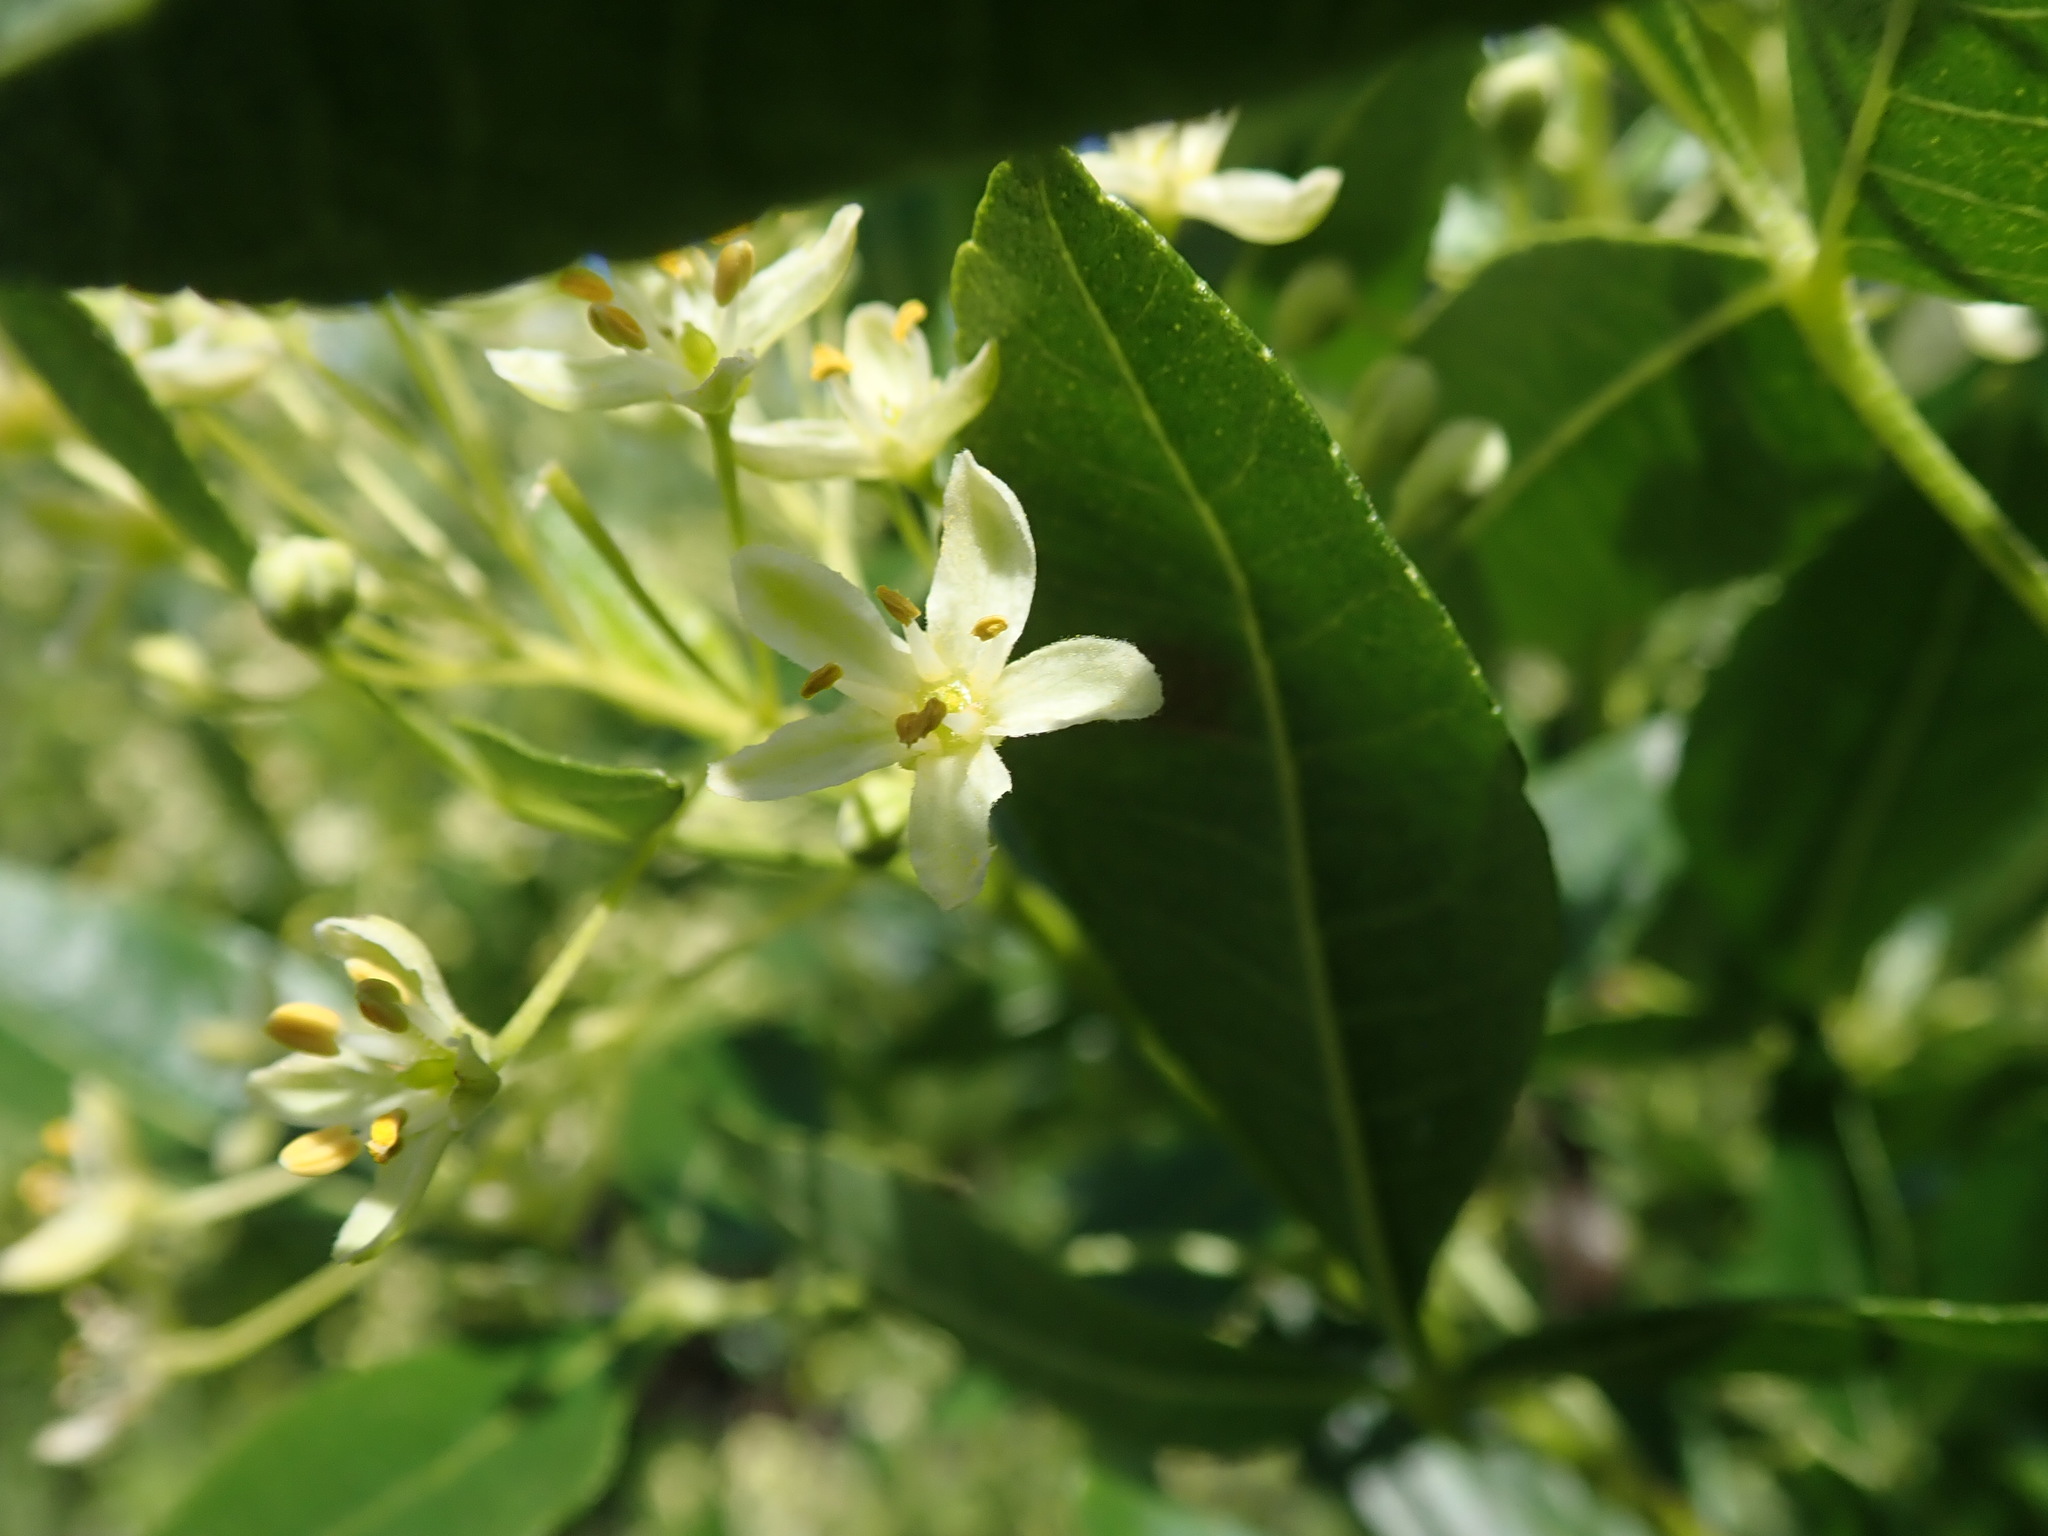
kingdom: Plantae
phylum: Tracheophyta
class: Magnoliopsida
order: Sapindales
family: Rutaceae
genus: Ptelea
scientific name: Ptelea crenulata
